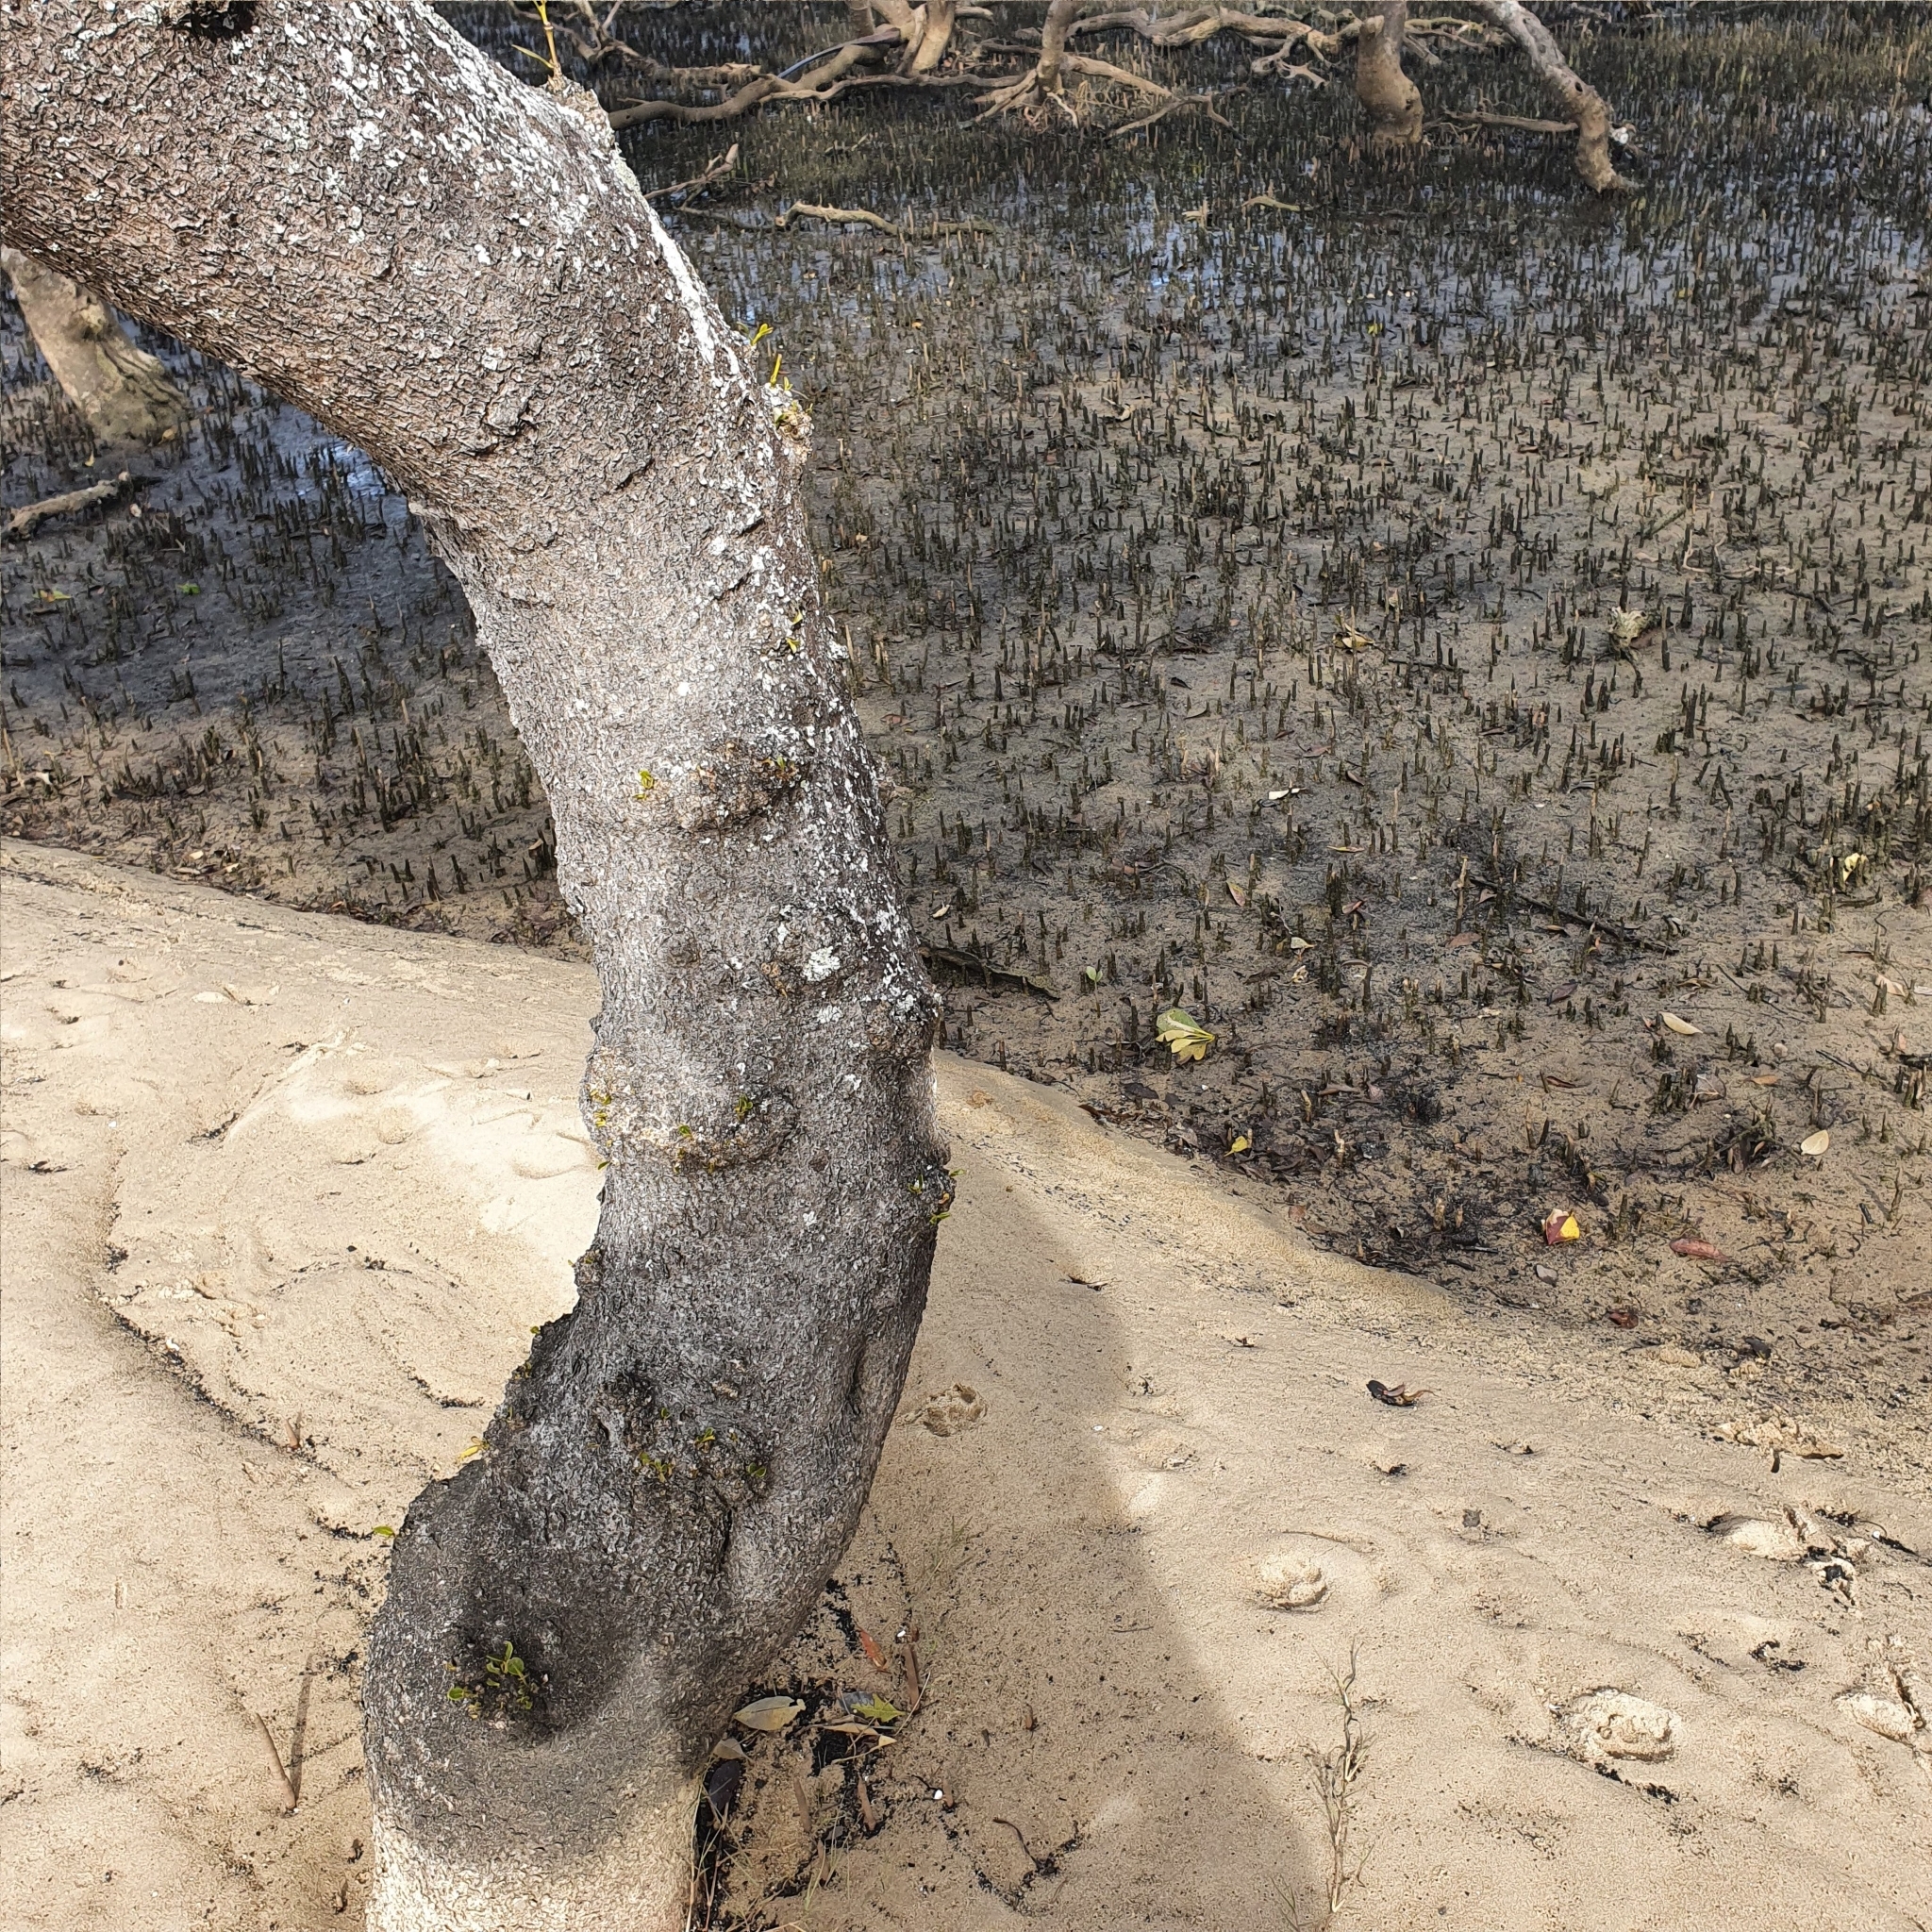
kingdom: Plantae
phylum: Tracheophyta
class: Magnoliopsida
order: Lamiales
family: Acanthaceae
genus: Avicennia
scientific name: Avicennia marina
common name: Gray mangrove
